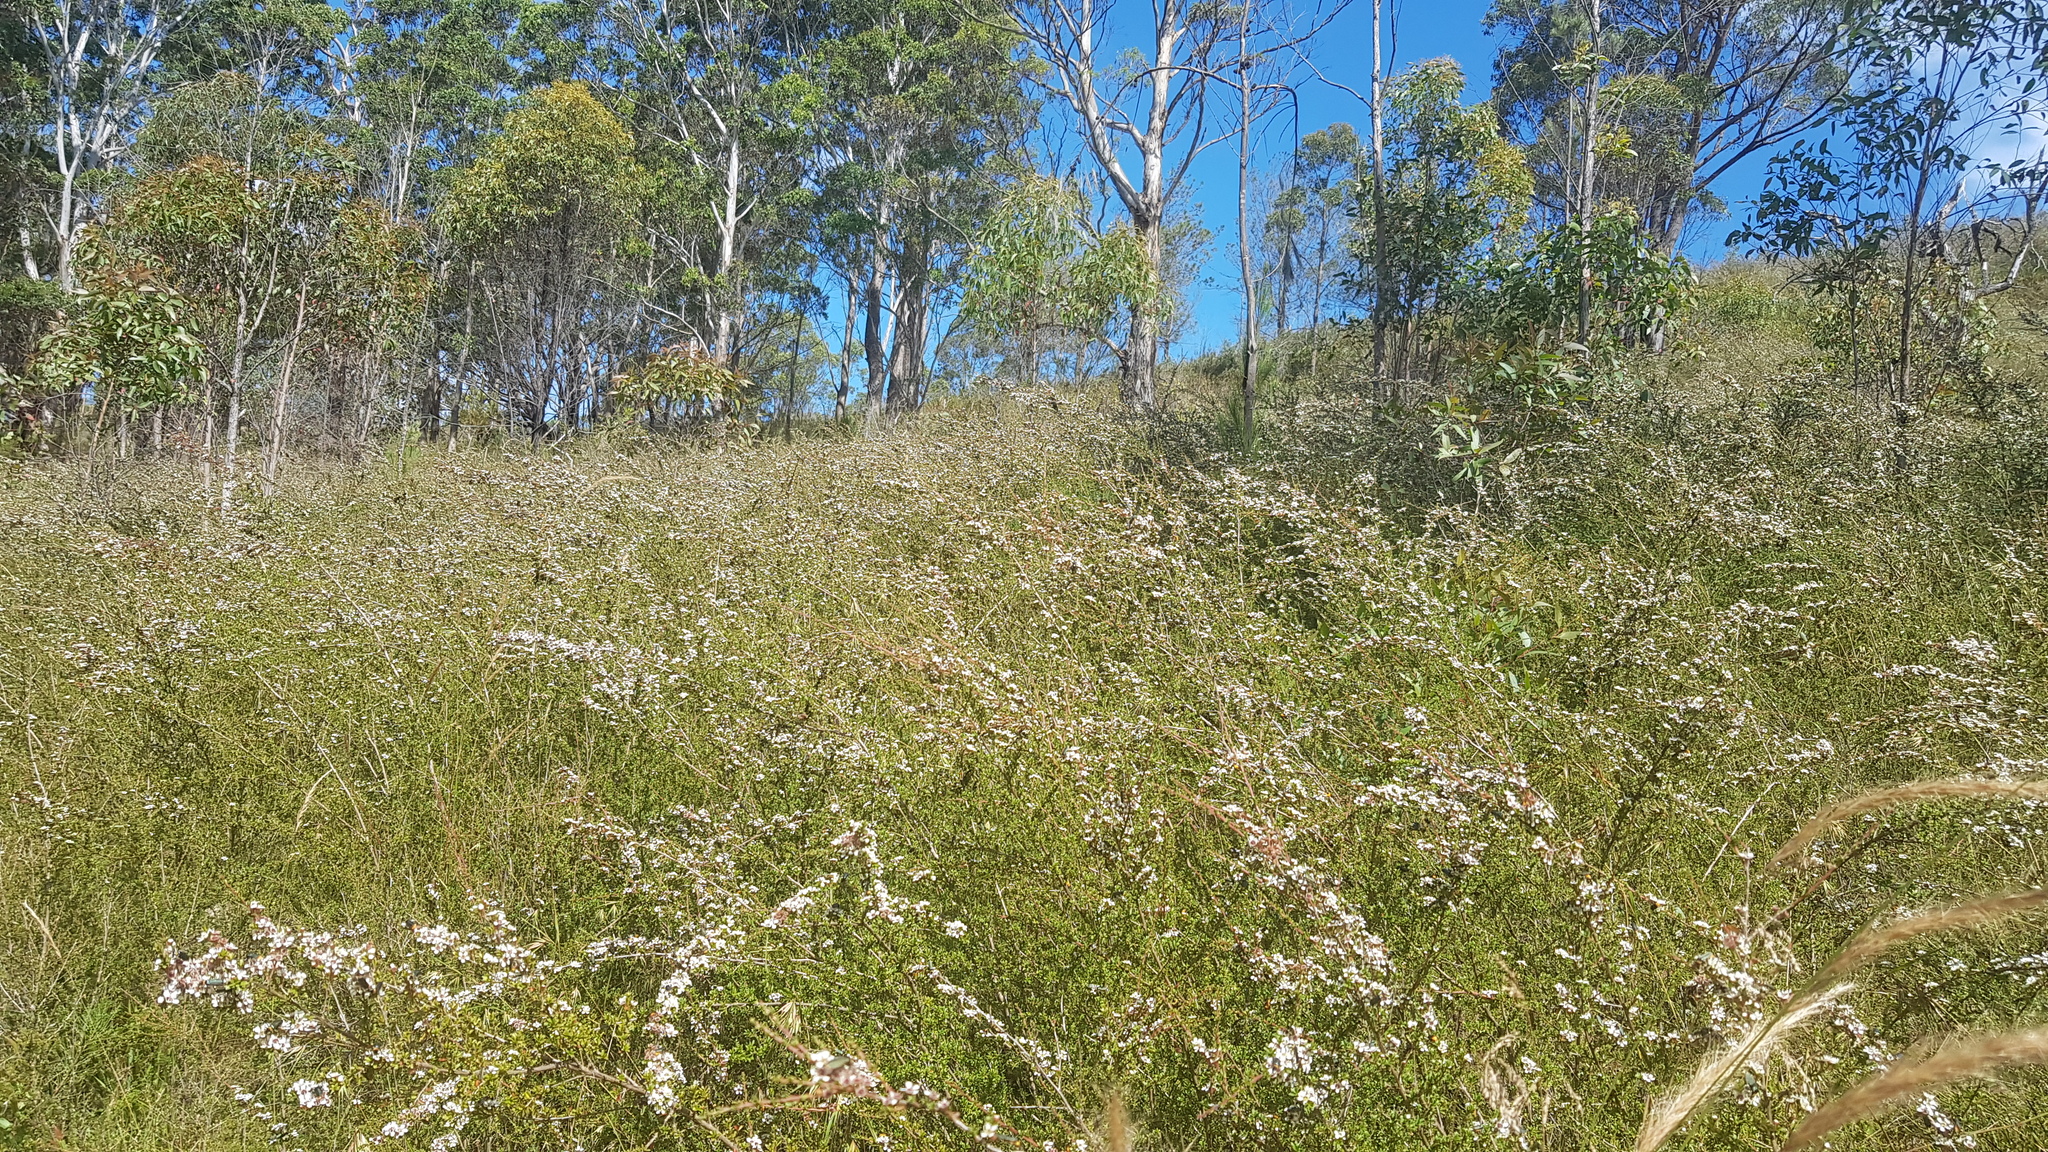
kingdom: Animalia
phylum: Arthropoda
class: Insecta
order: Coleoptera
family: Cantharidae
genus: Chauliognathus
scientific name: Chauliognathus
